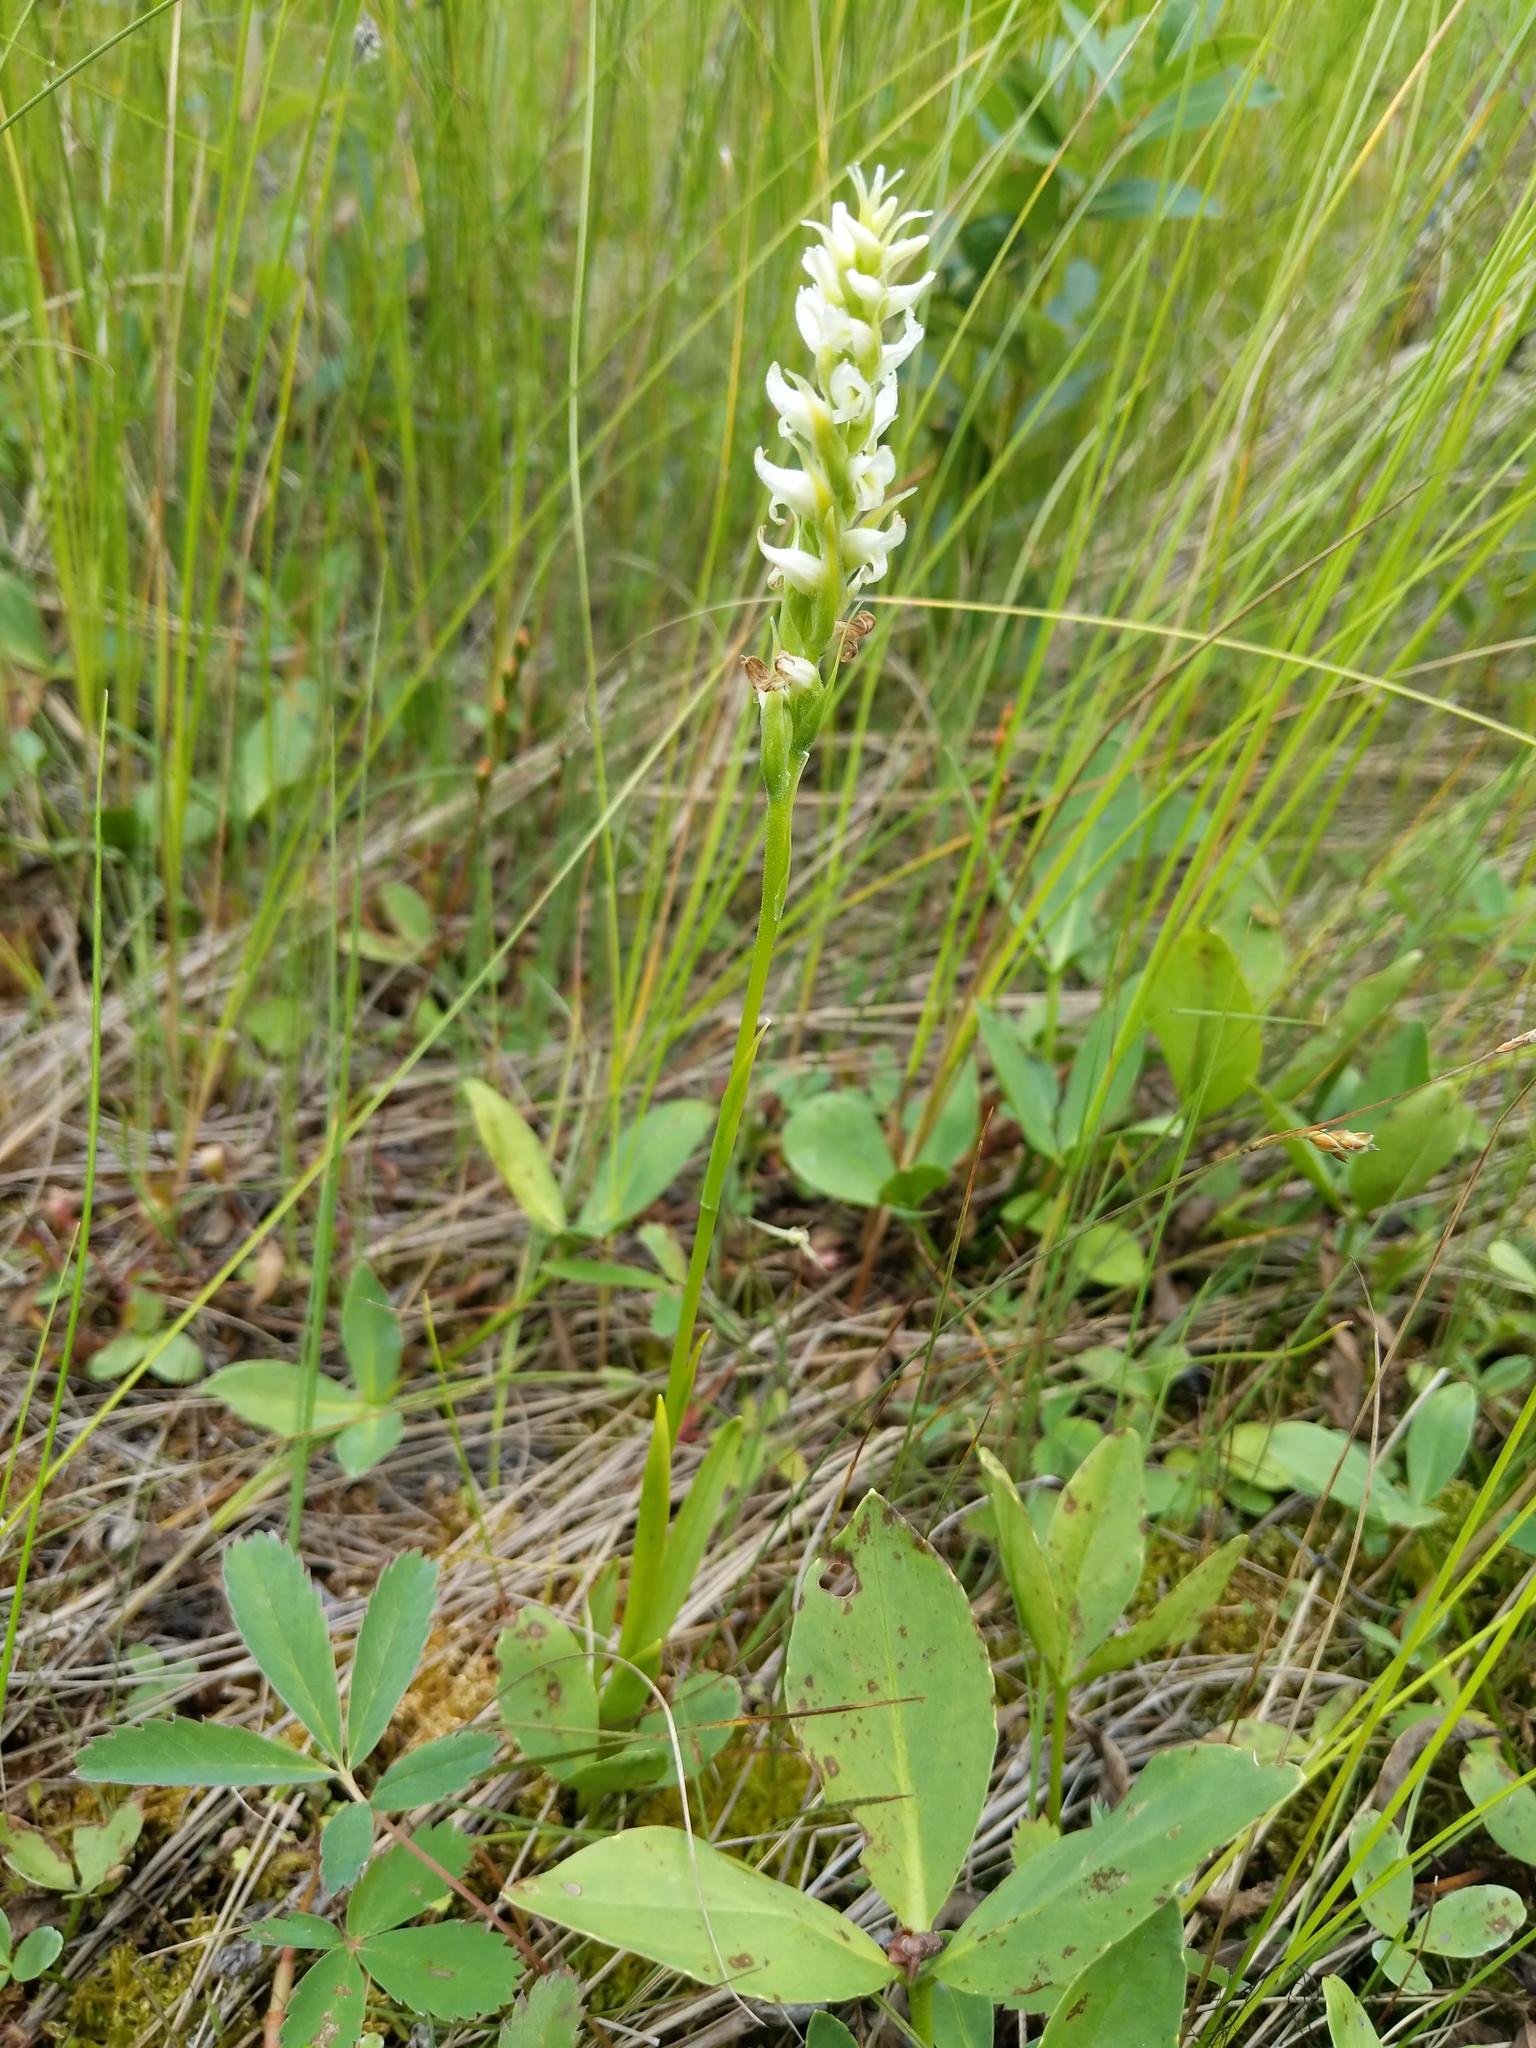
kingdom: Plantae
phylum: Tracheophyta
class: Liliopsida
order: Asparagales
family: Orchidaceae
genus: Spiranthes
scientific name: Spiranthes romanzoffiana
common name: Irish lady's-tresses
